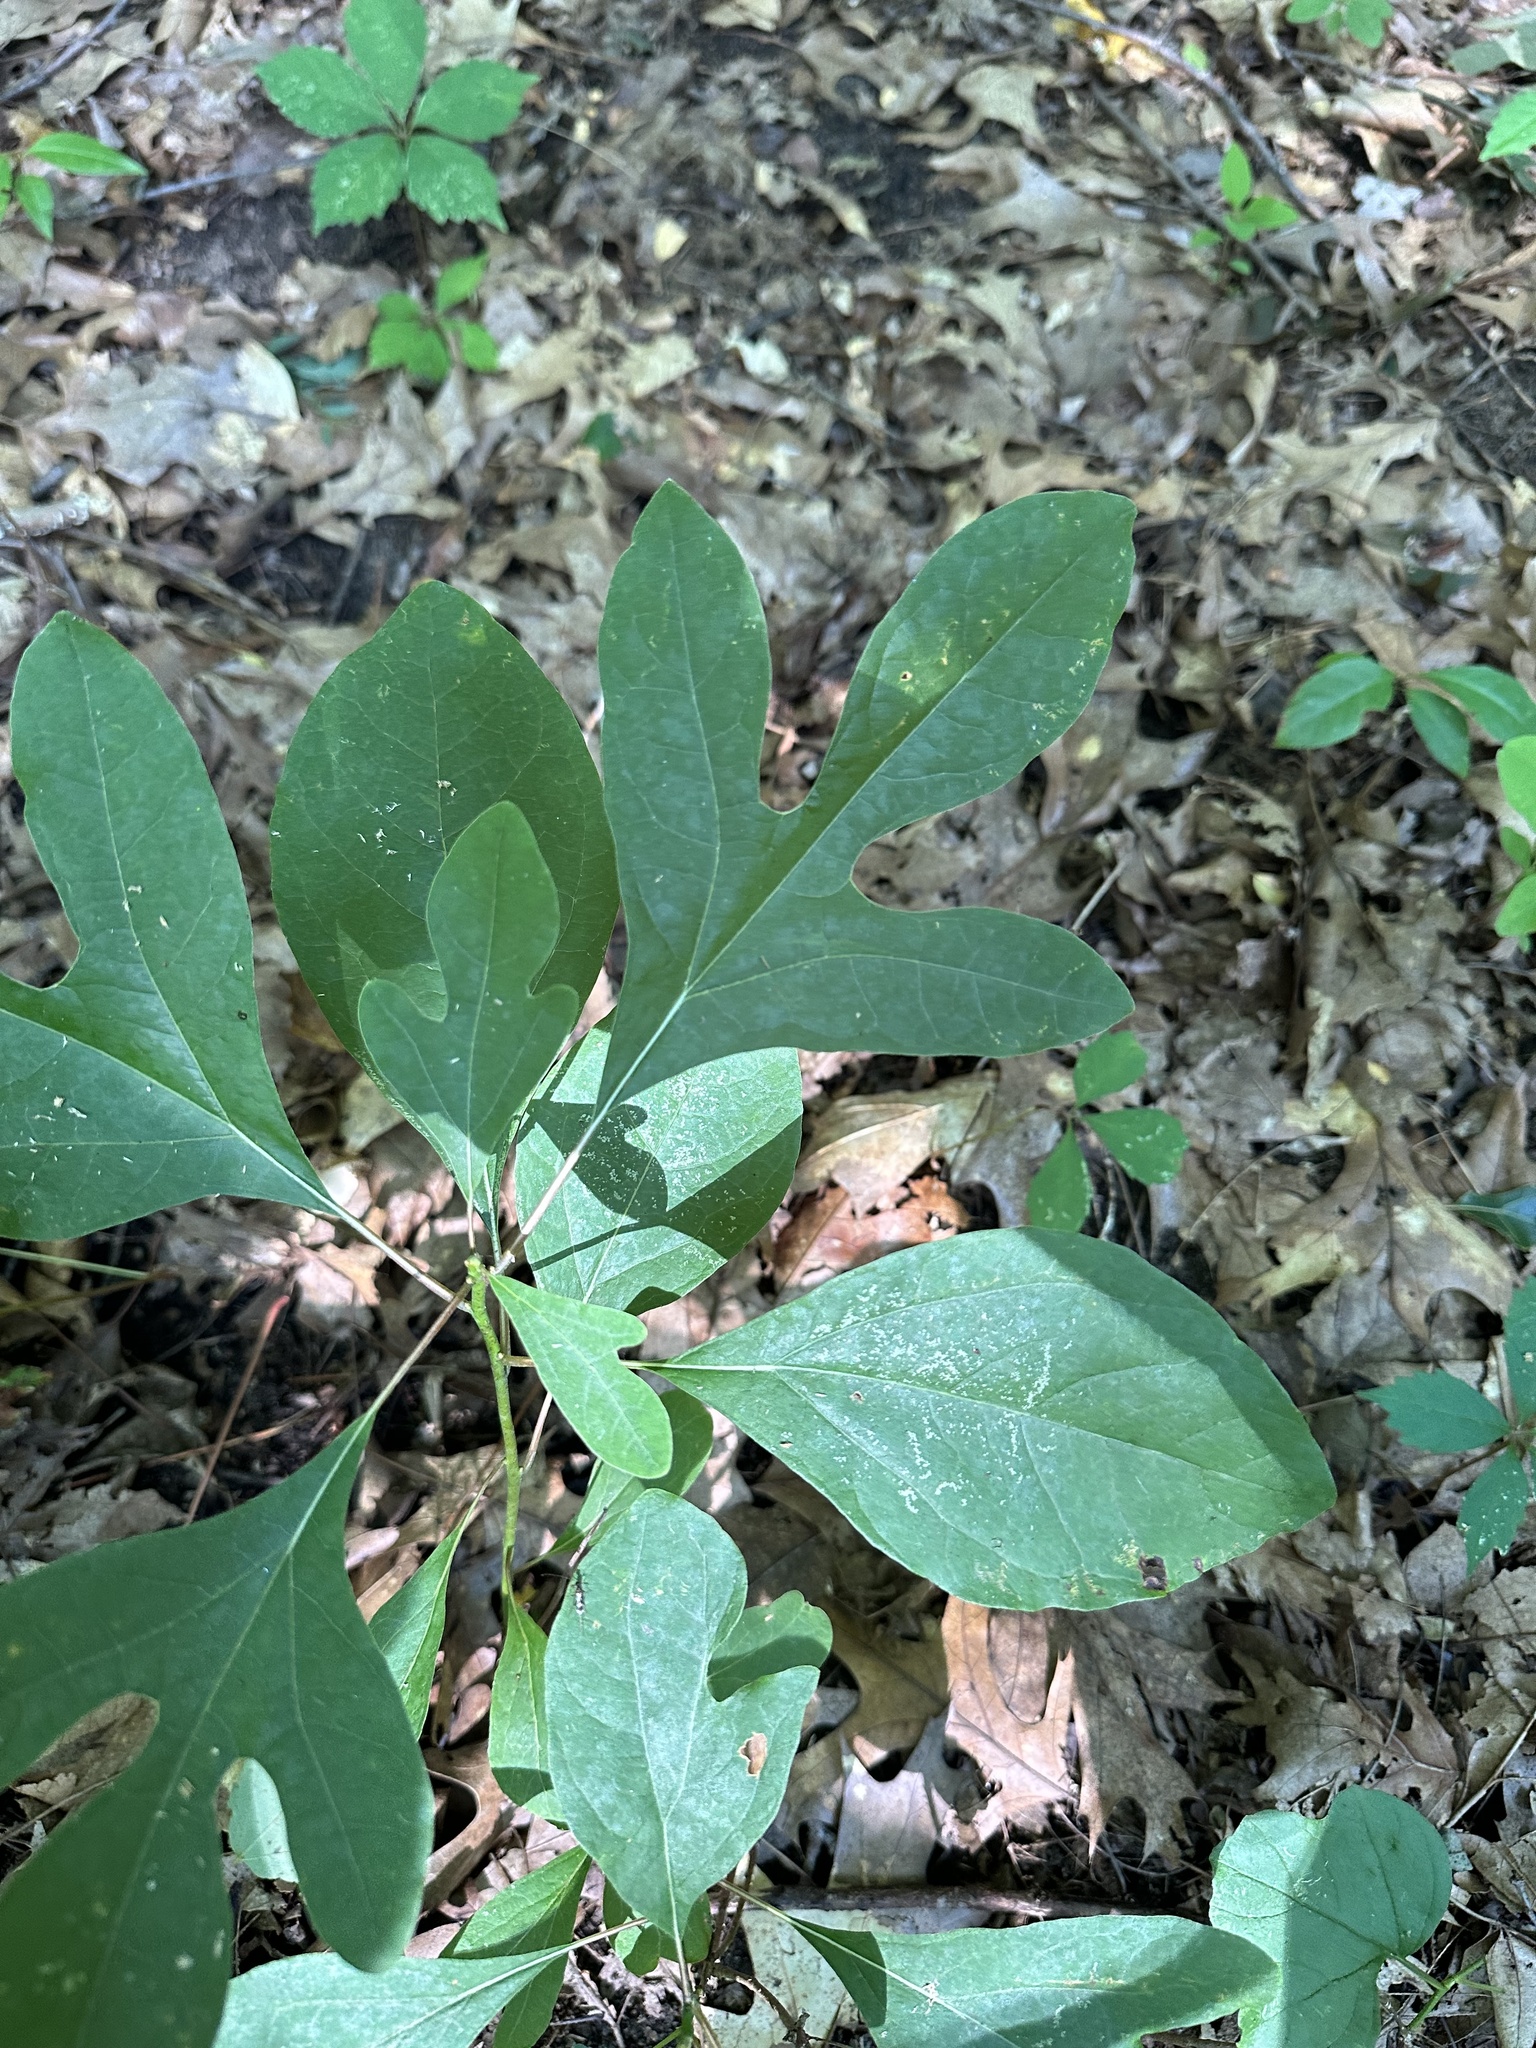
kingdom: Plantae
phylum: Tracheophyta
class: Magnoliopsida
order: Laurales
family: Lauraceae
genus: Sassafras
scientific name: Sassafras albidum
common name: Sassafras
